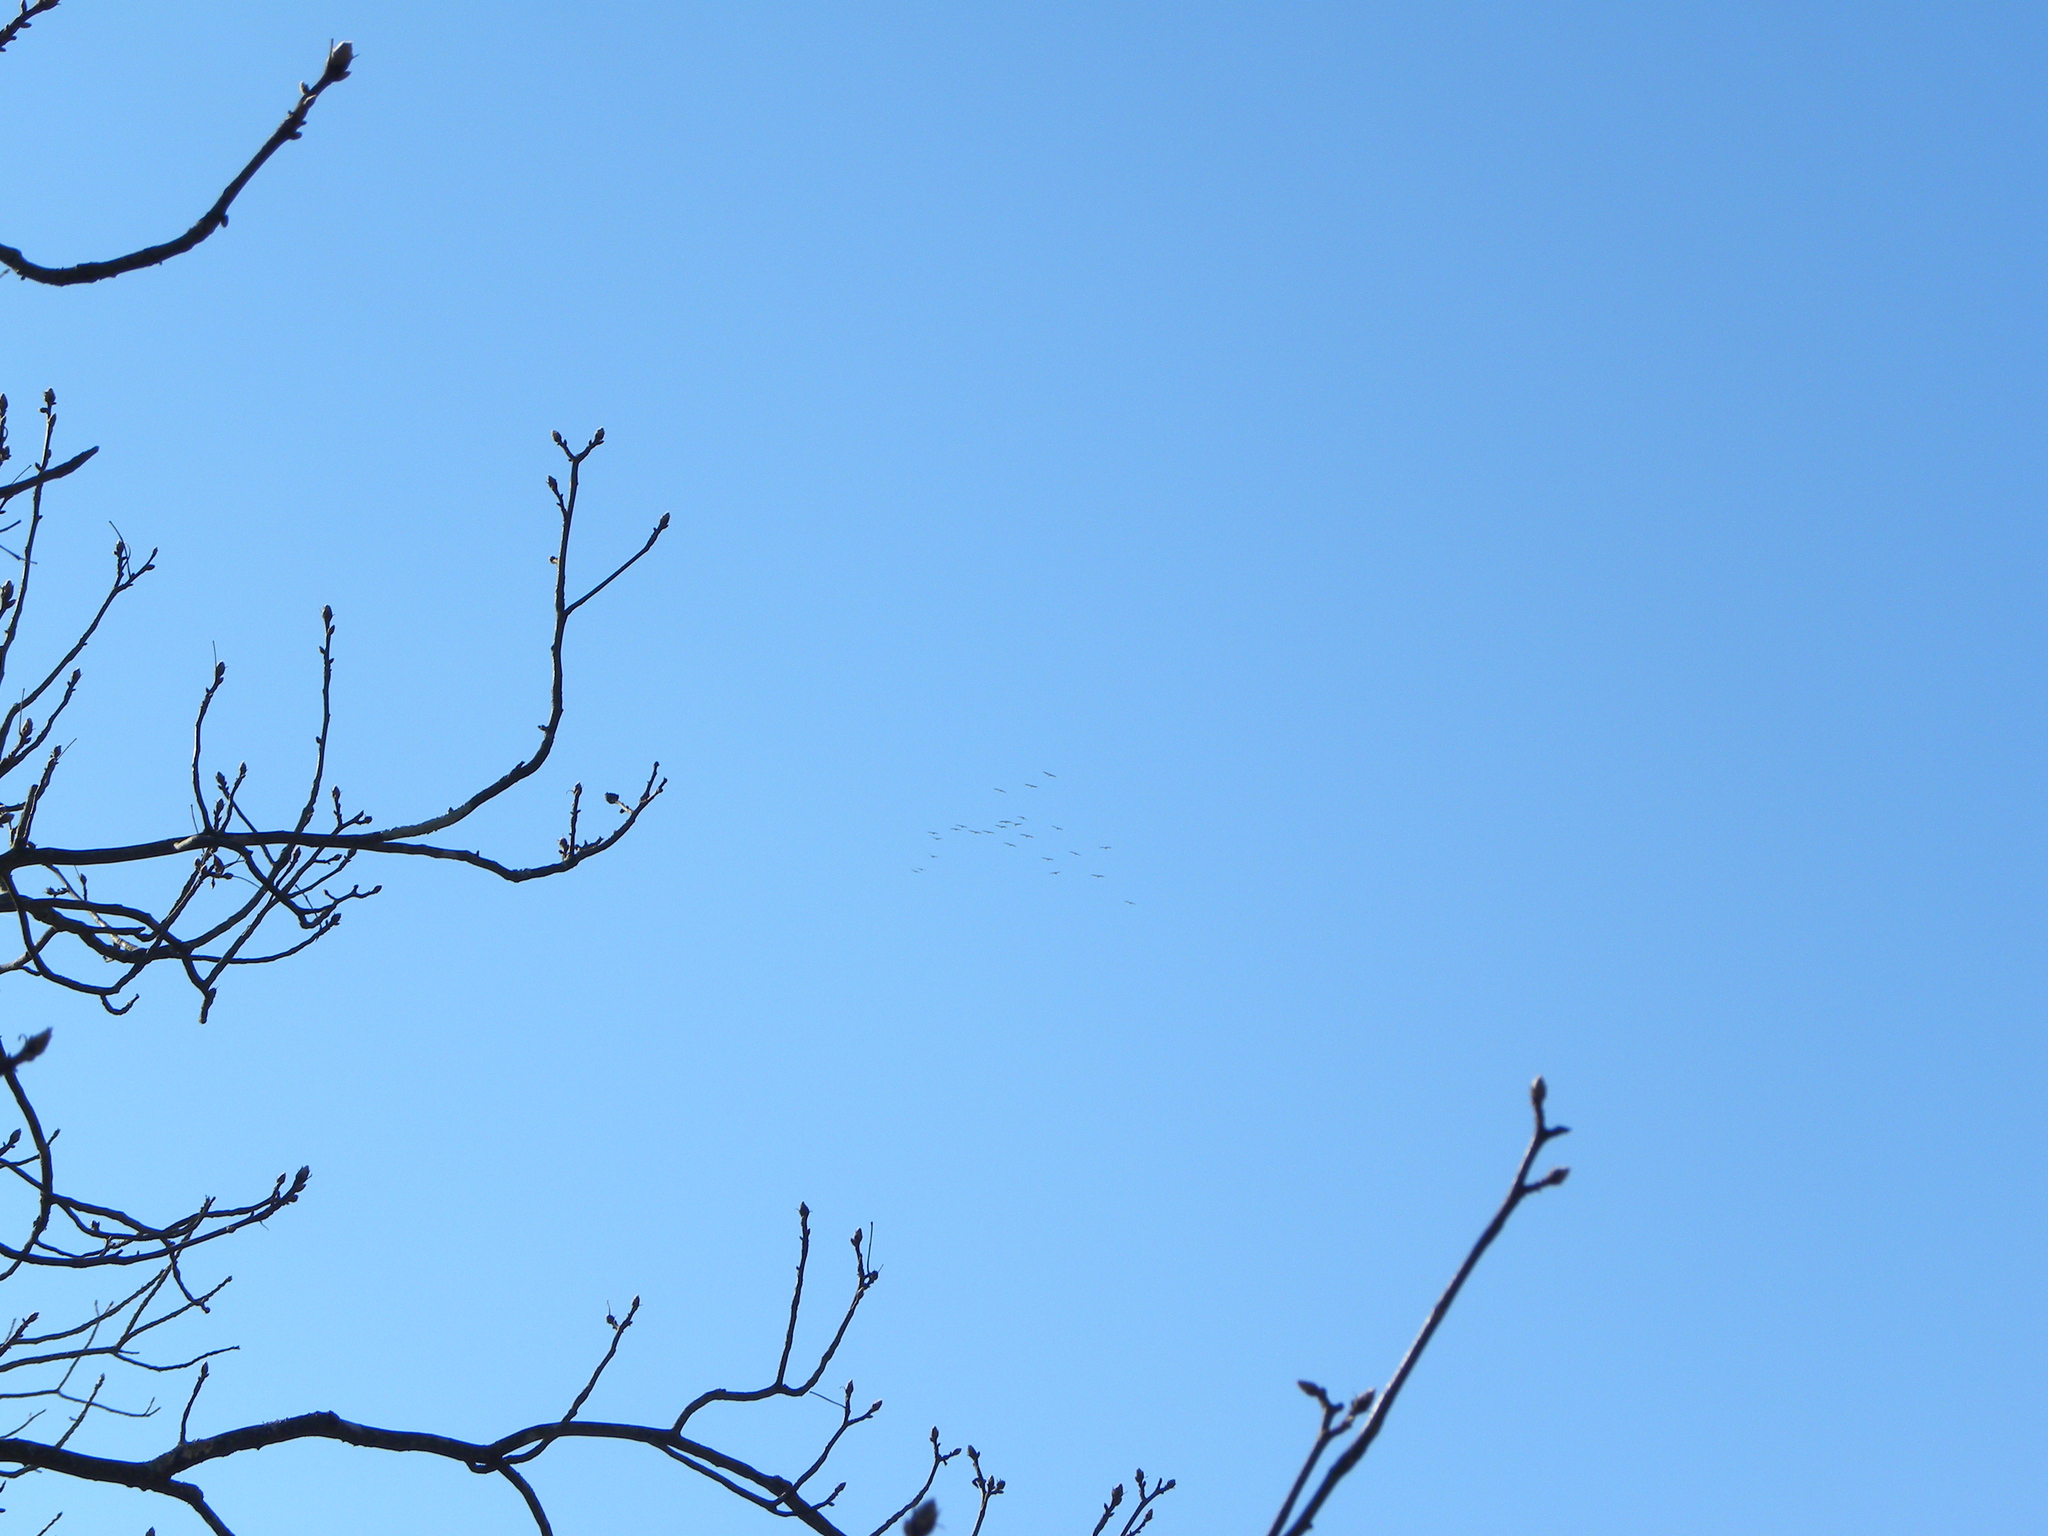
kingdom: Animalia
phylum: Chordata
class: Aves
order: Gruiformes
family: Gruidae
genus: Grus
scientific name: Grus canadensis
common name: Sandhill crane
